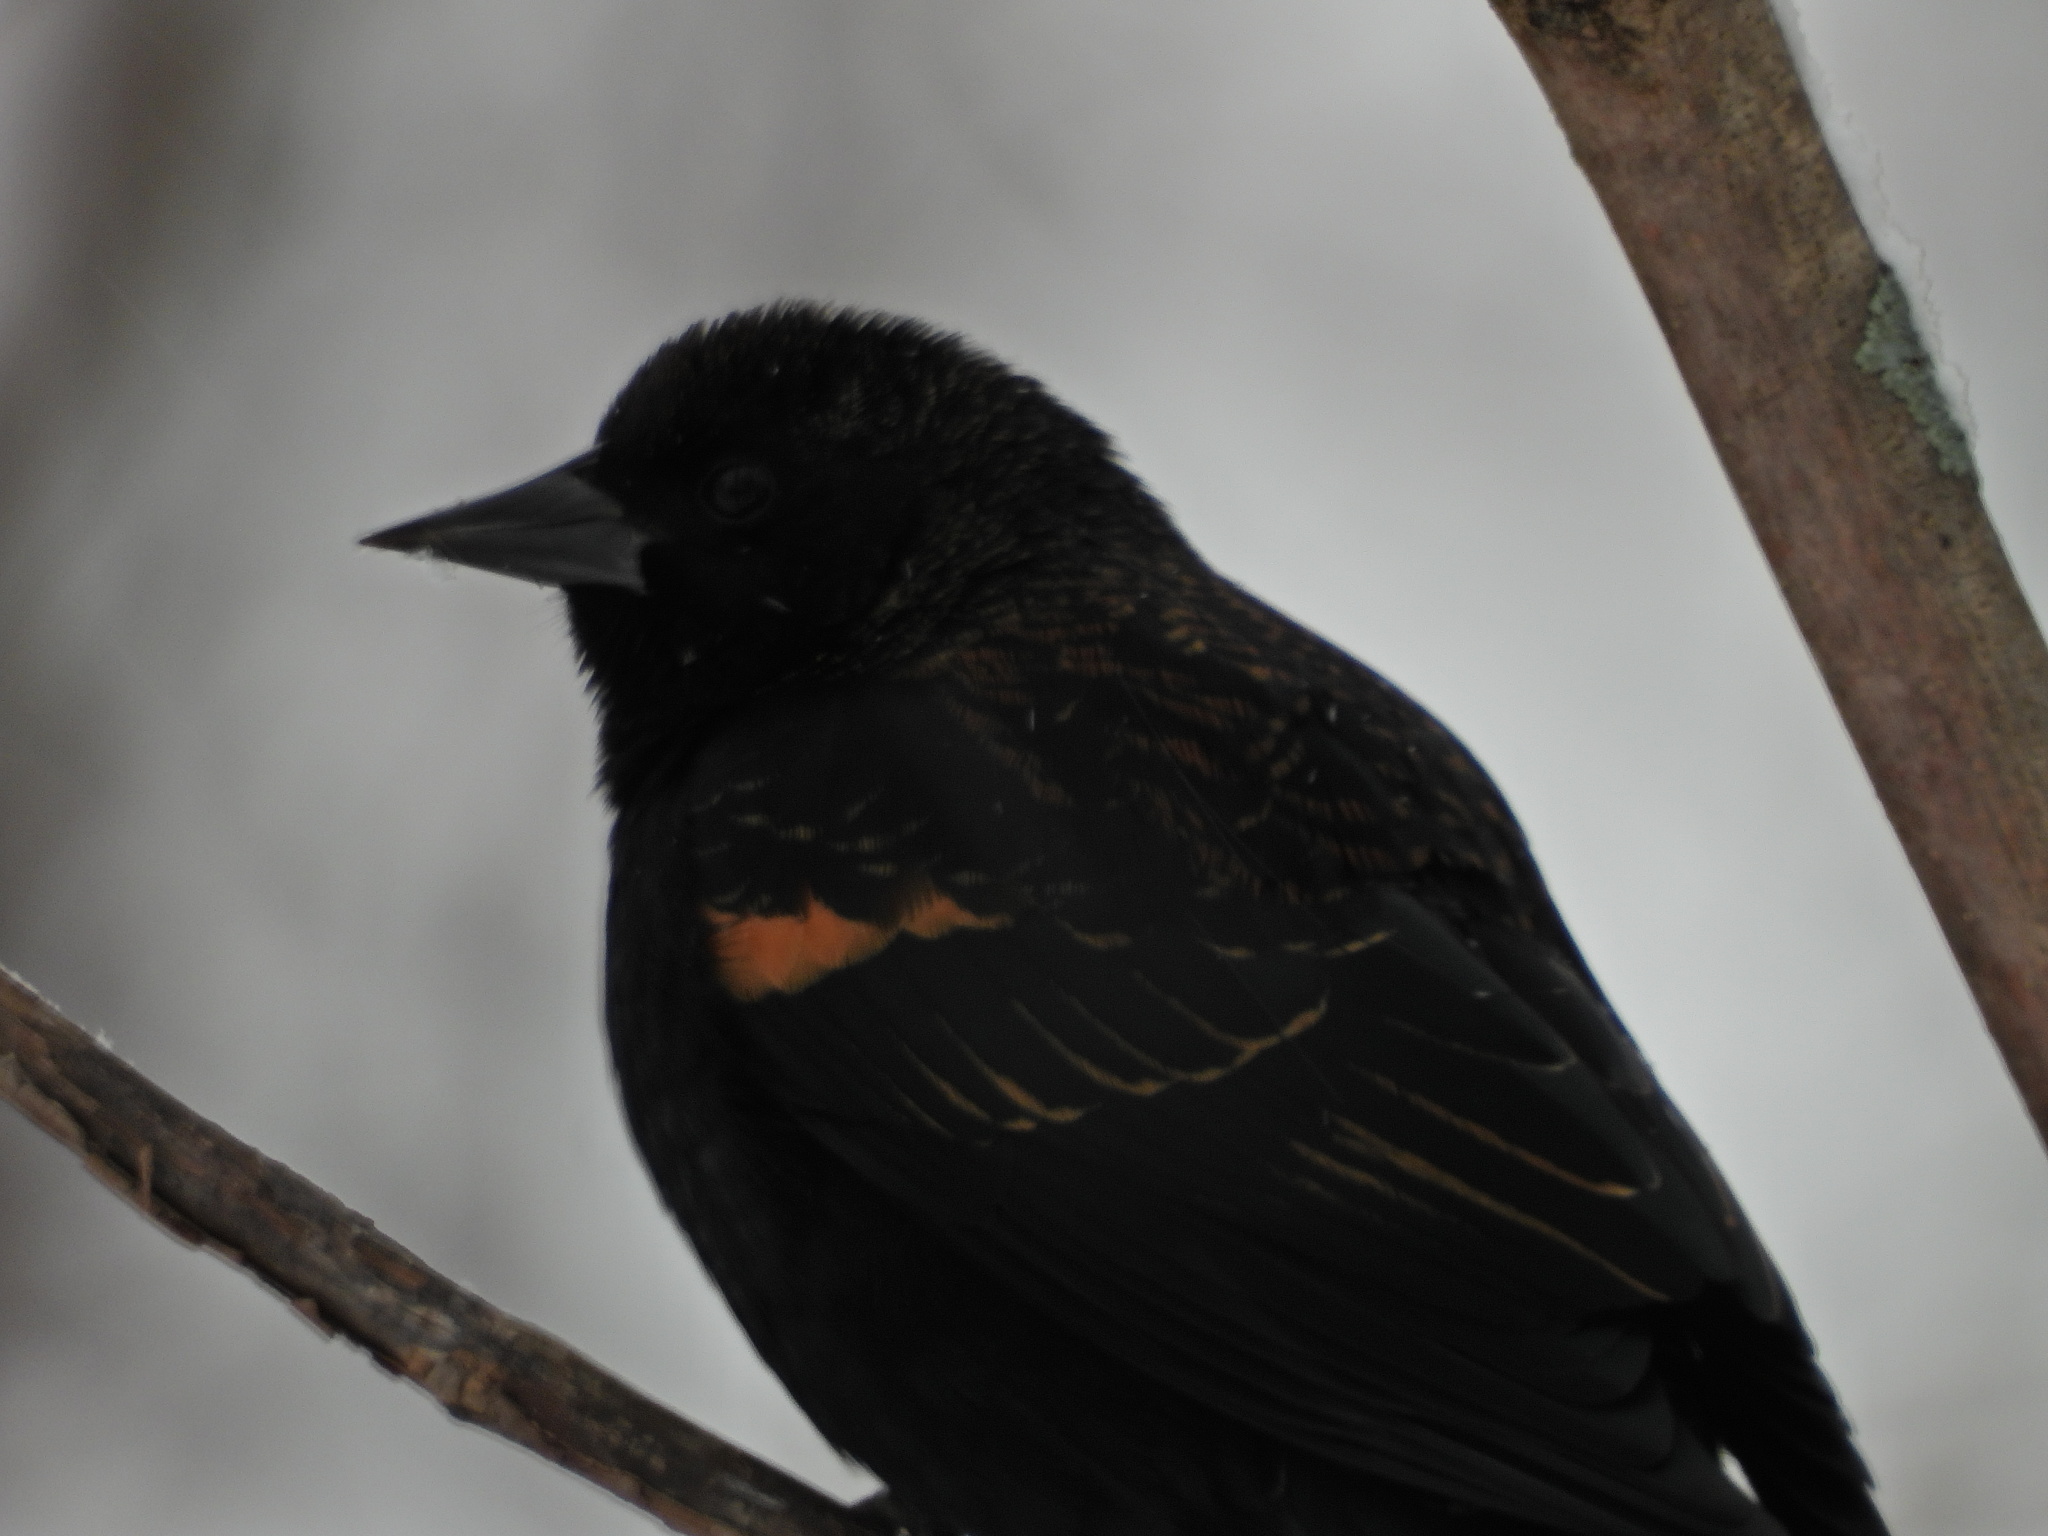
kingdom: Animalia
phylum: Chordata
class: Aves
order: Passeriformes
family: Icteridae
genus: Agelaius
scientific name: Agelaius phoeniceus
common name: Red-winged blackbird
